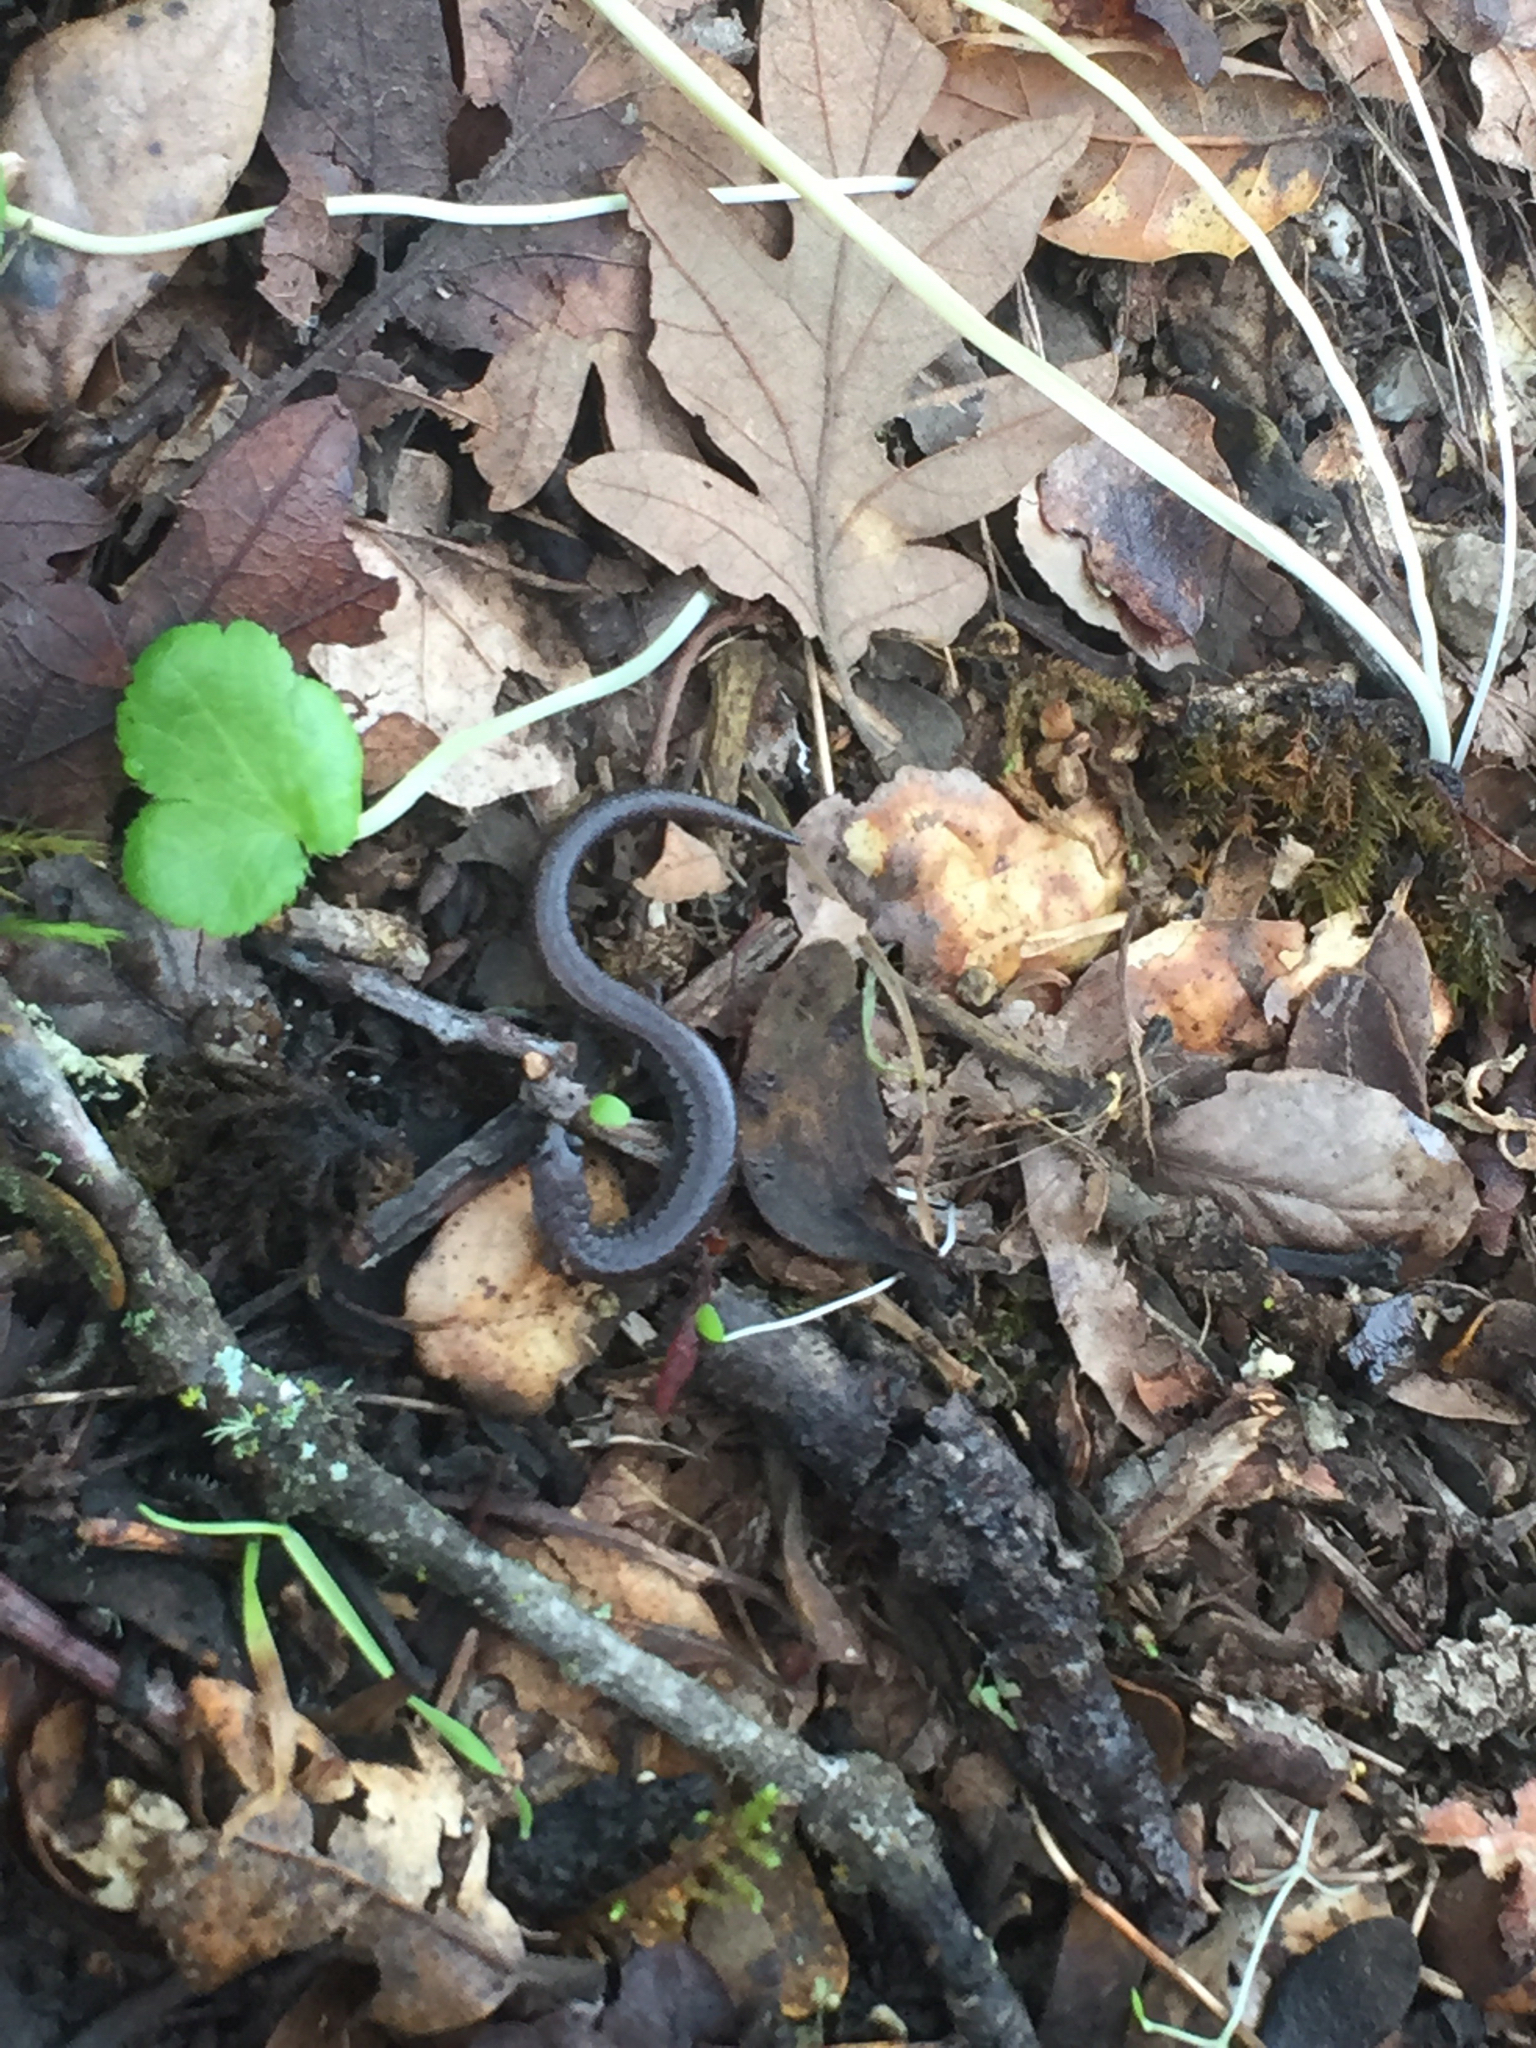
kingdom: Animalia
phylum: Chordata
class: Amphibia
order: Caudata
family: Plethodontidae
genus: Batrachoseps
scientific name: Batrachoseps attenuatus
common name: California slender salamander
